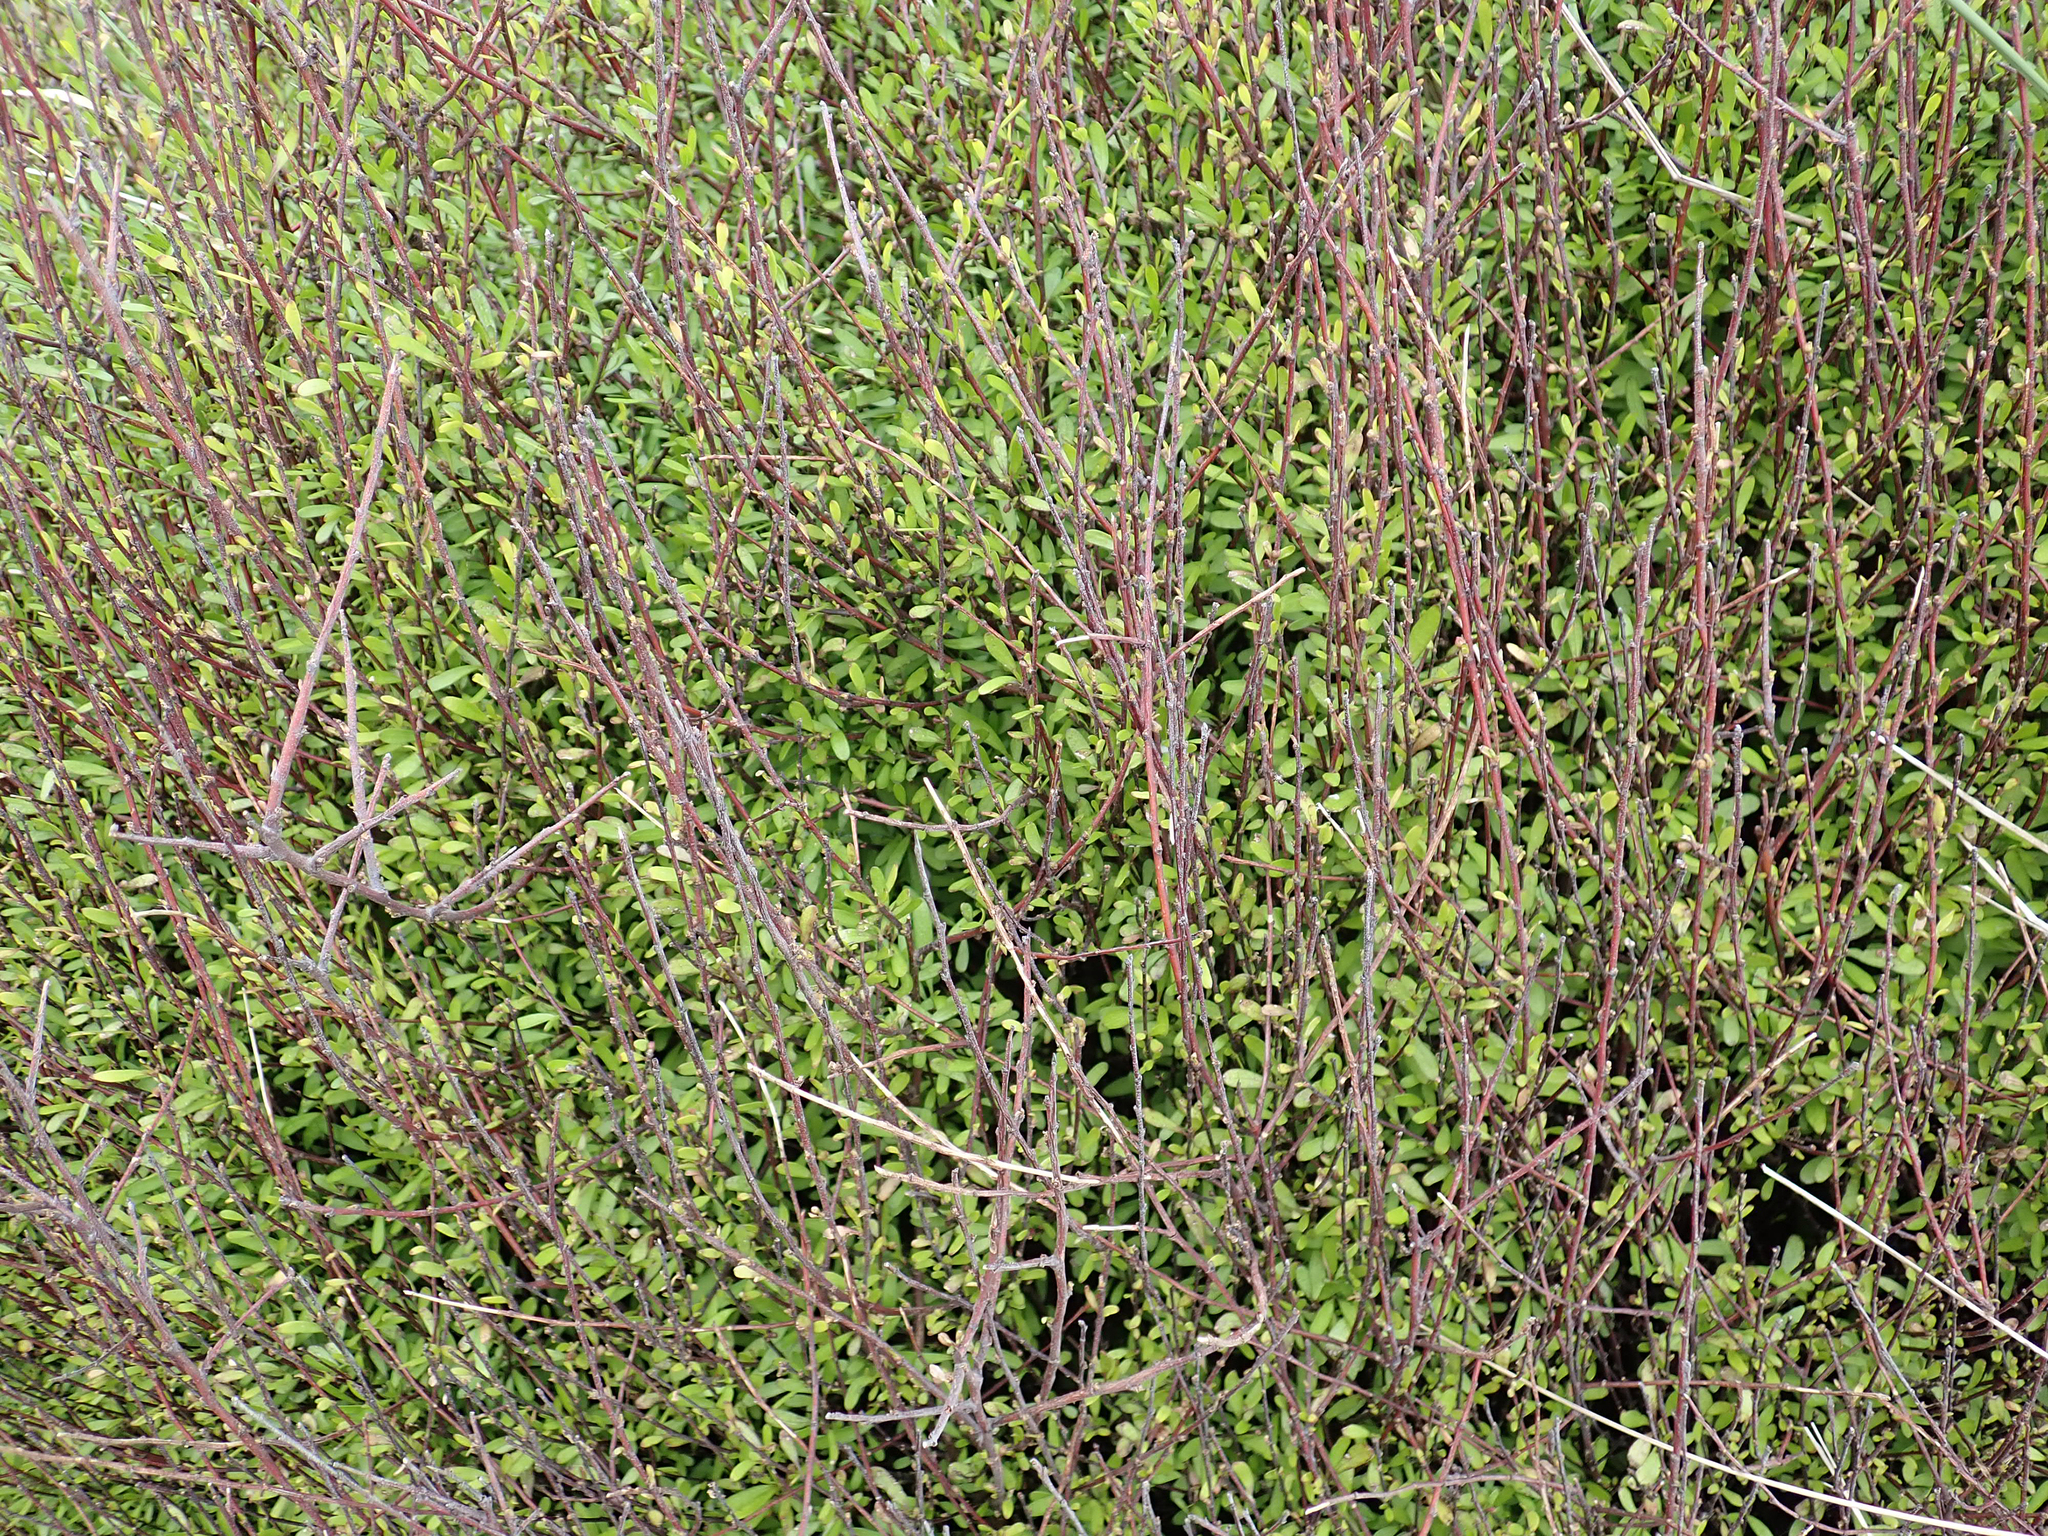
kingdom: Plantae
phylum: Tracheophyta
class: Magnoliopsida
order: Malvales
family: Malvaceae
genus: Plagianthus
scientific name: Plagianthus divaricatus
